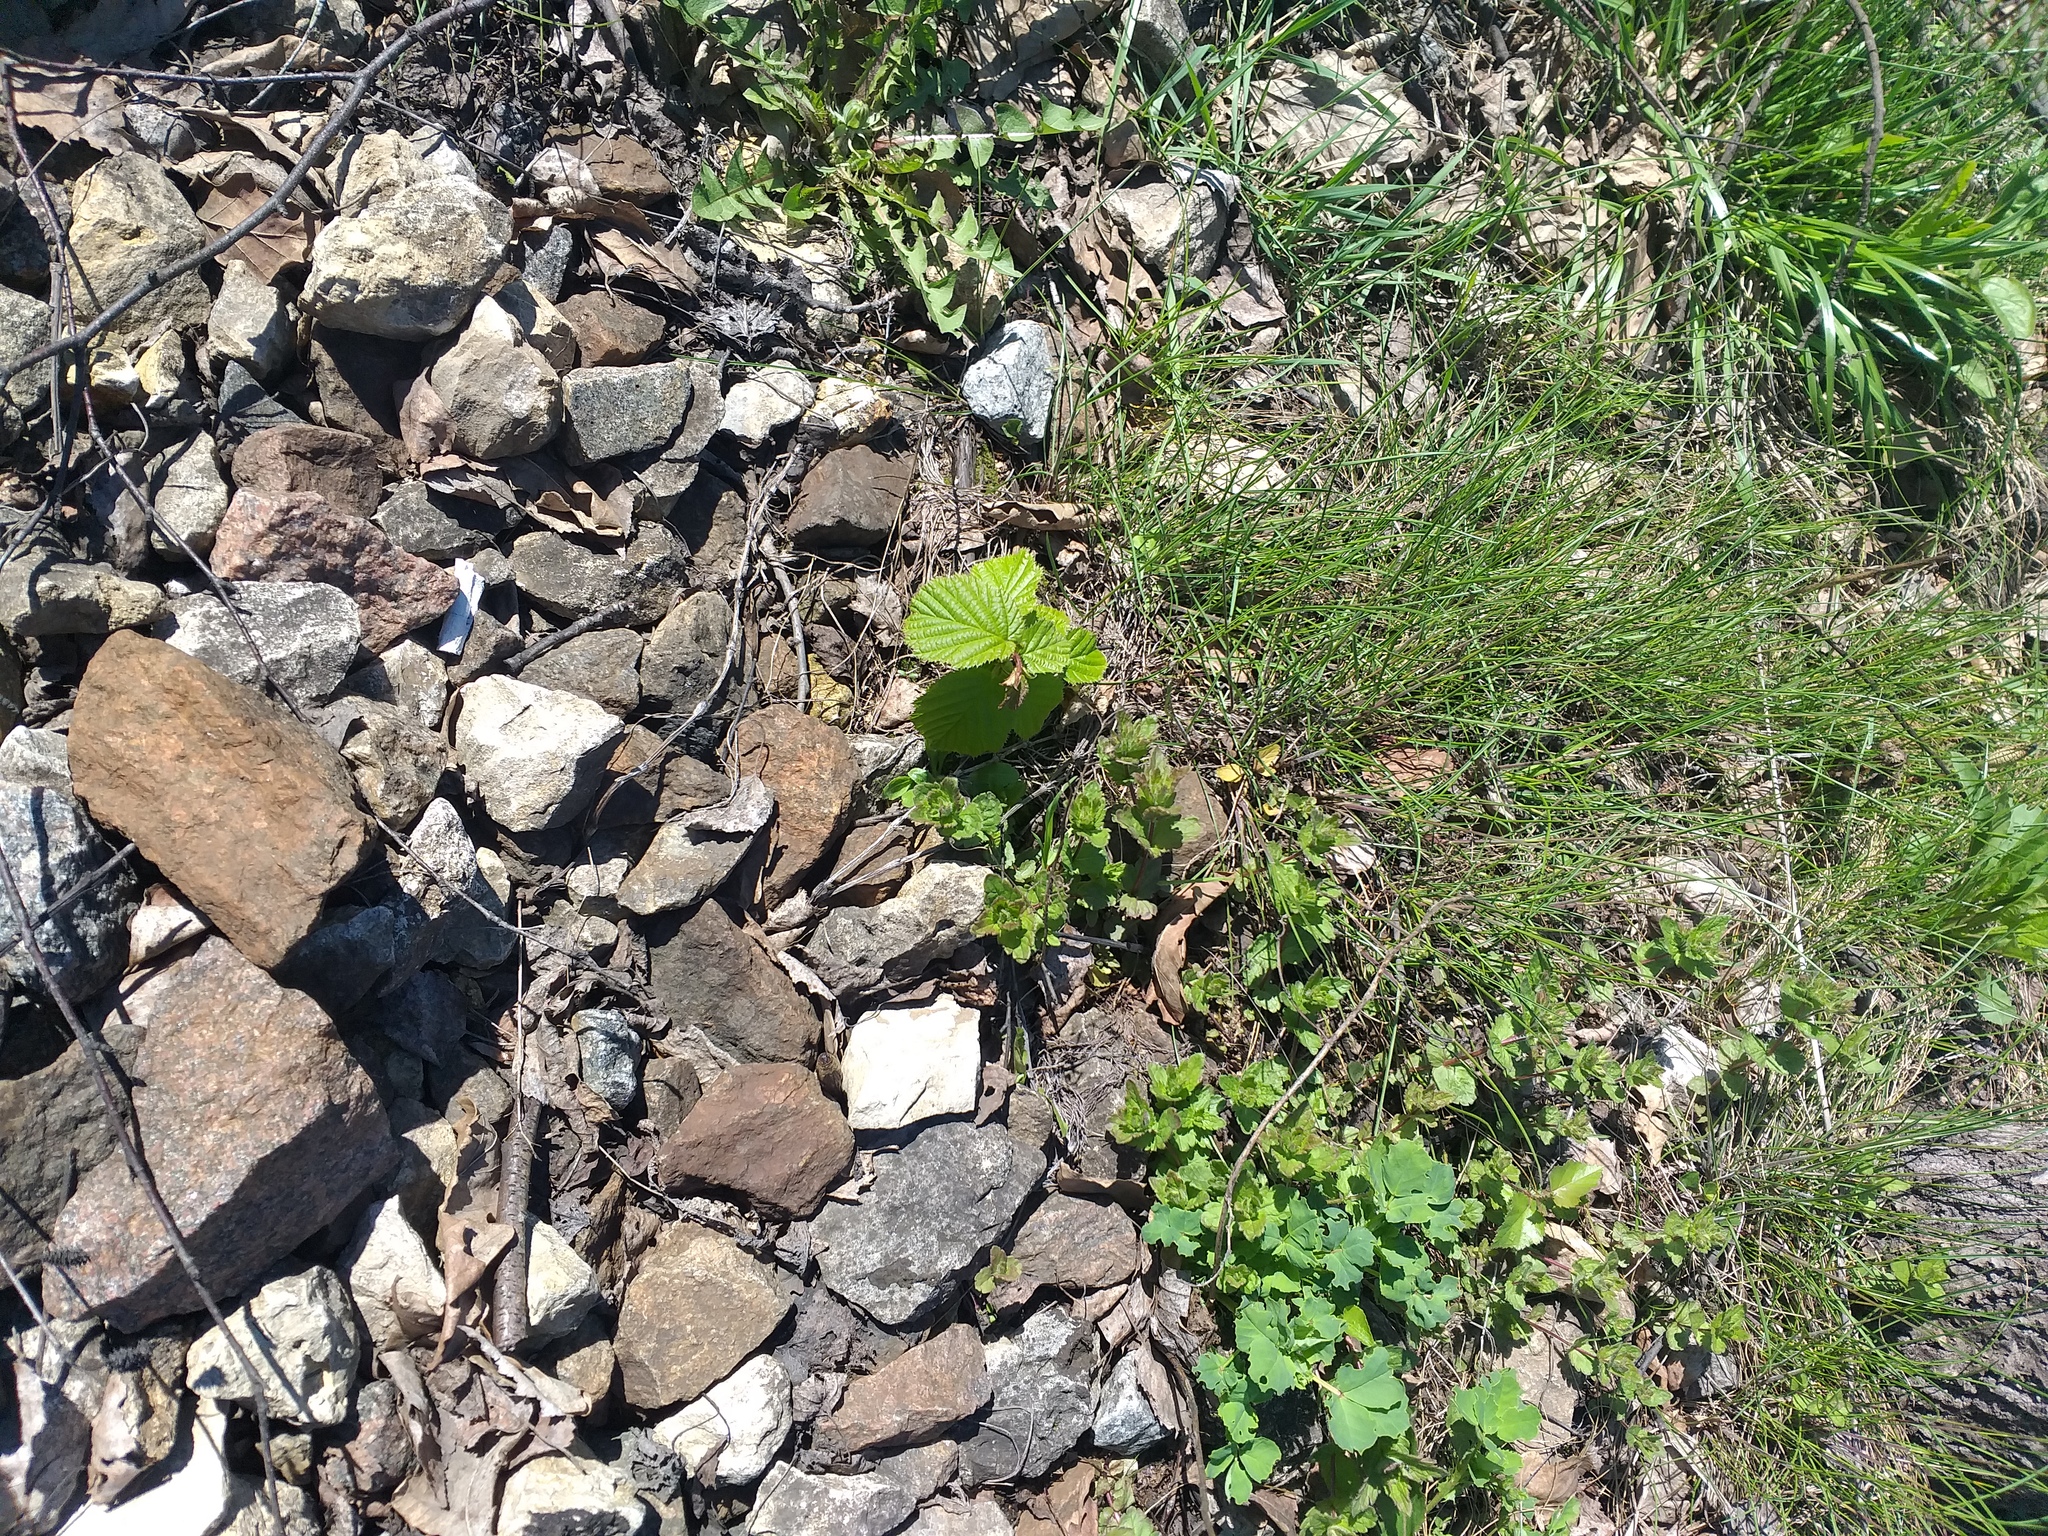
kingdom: Plantae
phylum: Tracheophyta
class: Magnoliopsida
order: Fagales
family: Betulaceae
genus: Corylus
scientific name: Corylus avellana
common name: European hazel
